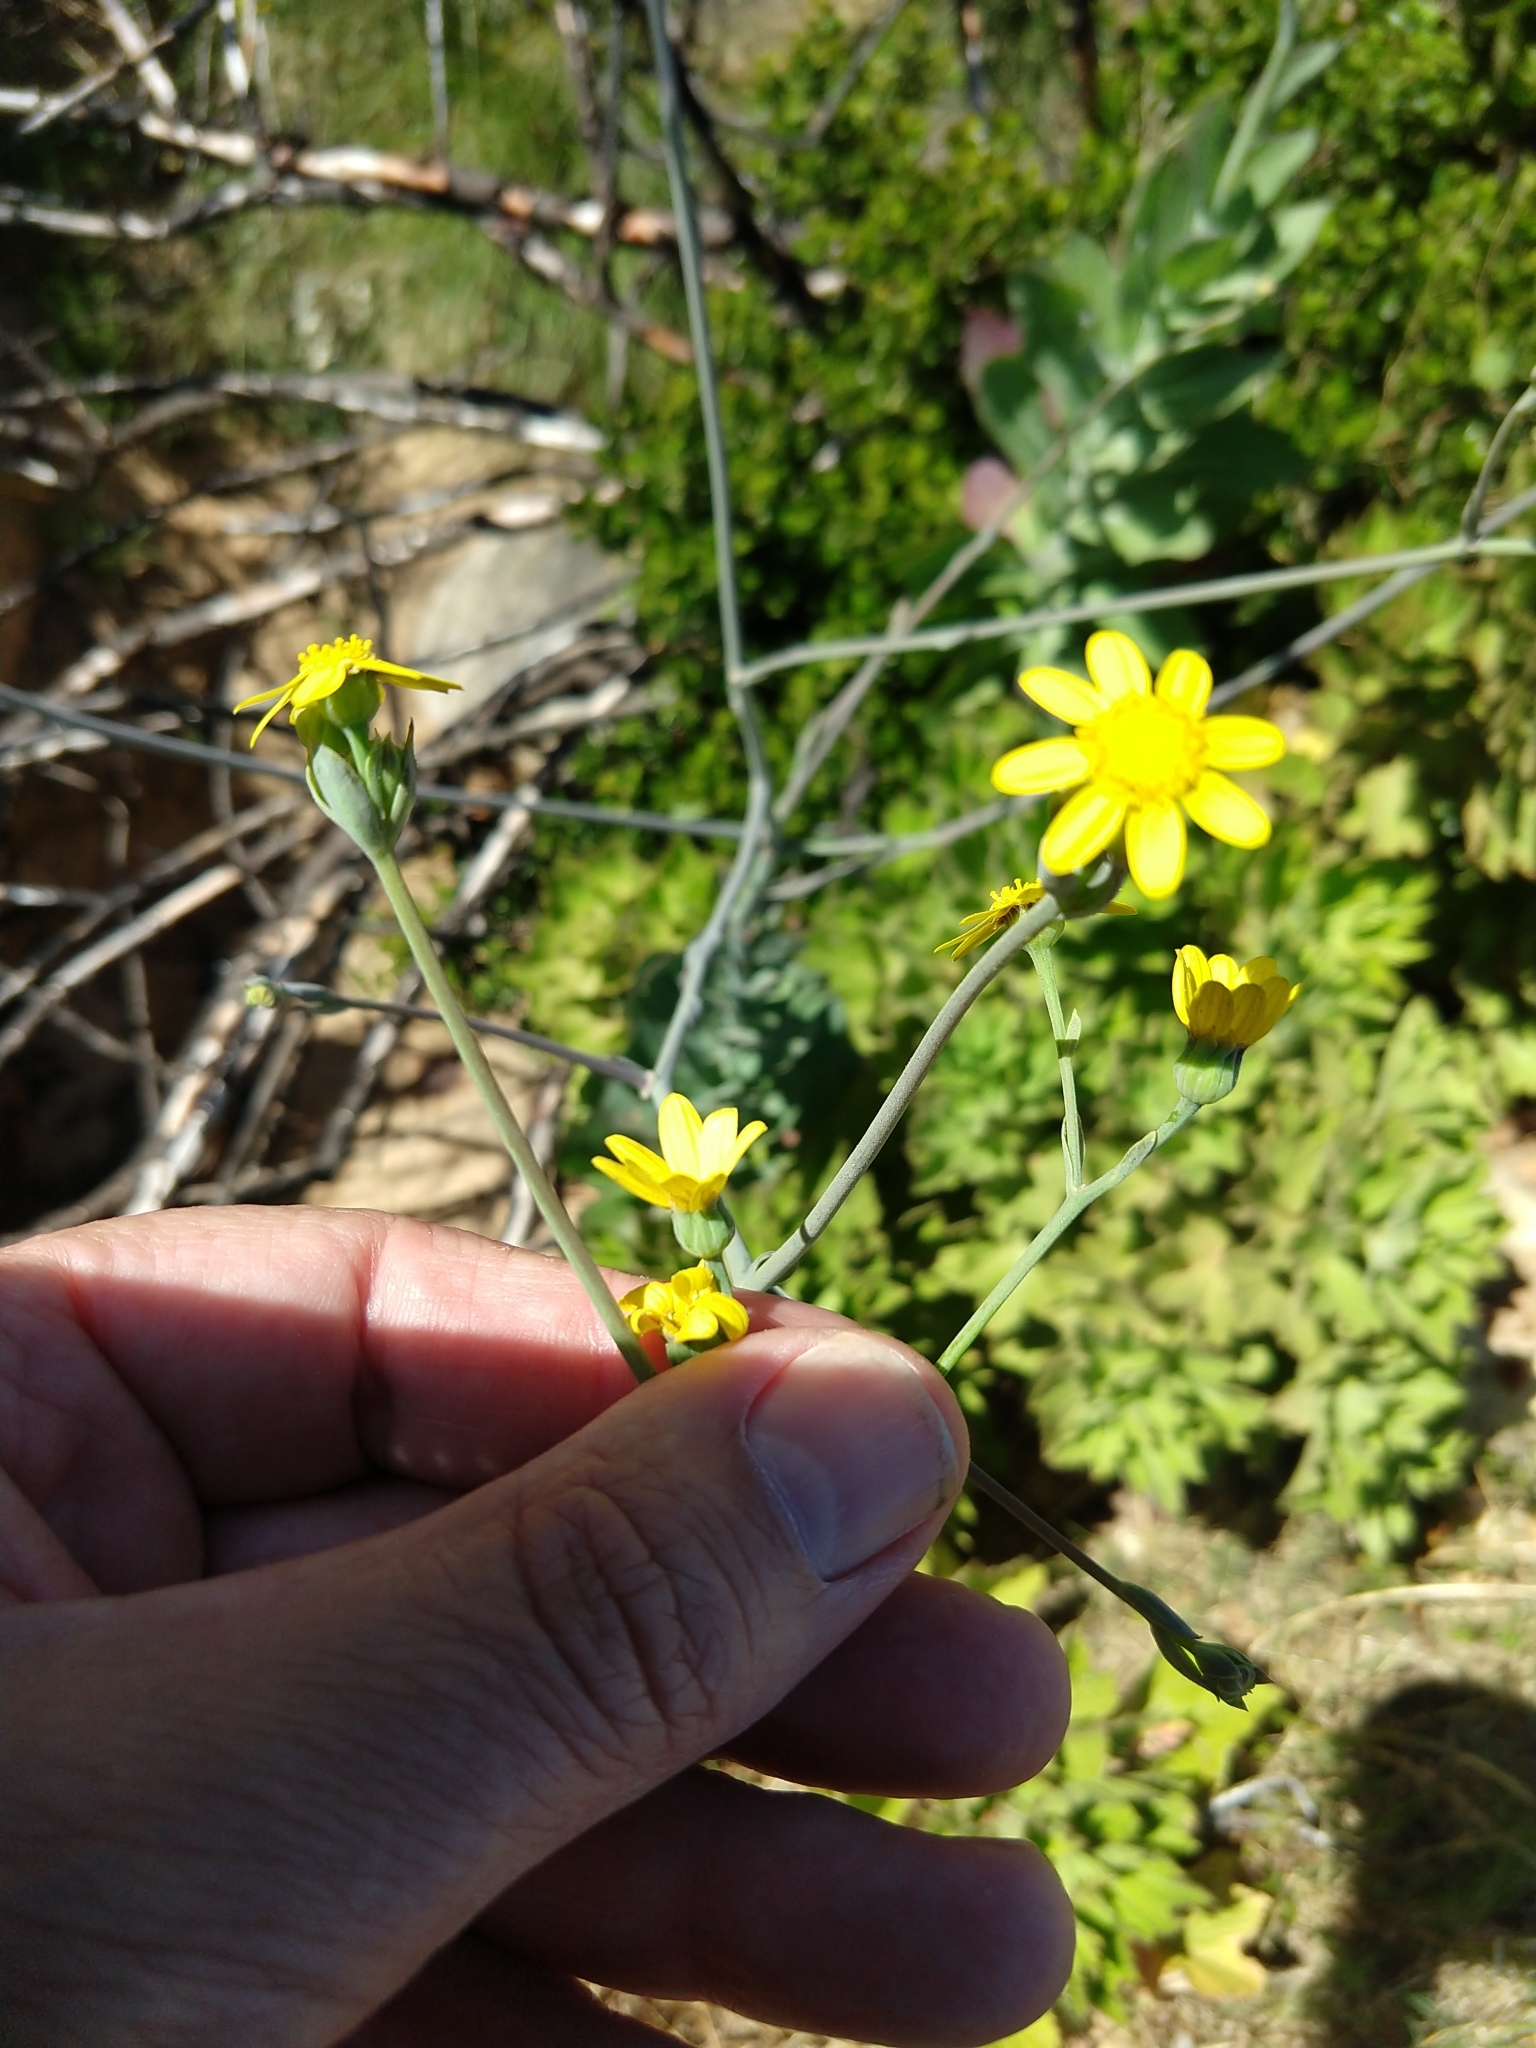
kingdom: Plantae
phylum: Tracheophyta
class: Magnoliopsida
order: Asterales
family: Asteraceae
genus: Othonna
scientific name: Othonna quinquedentata
